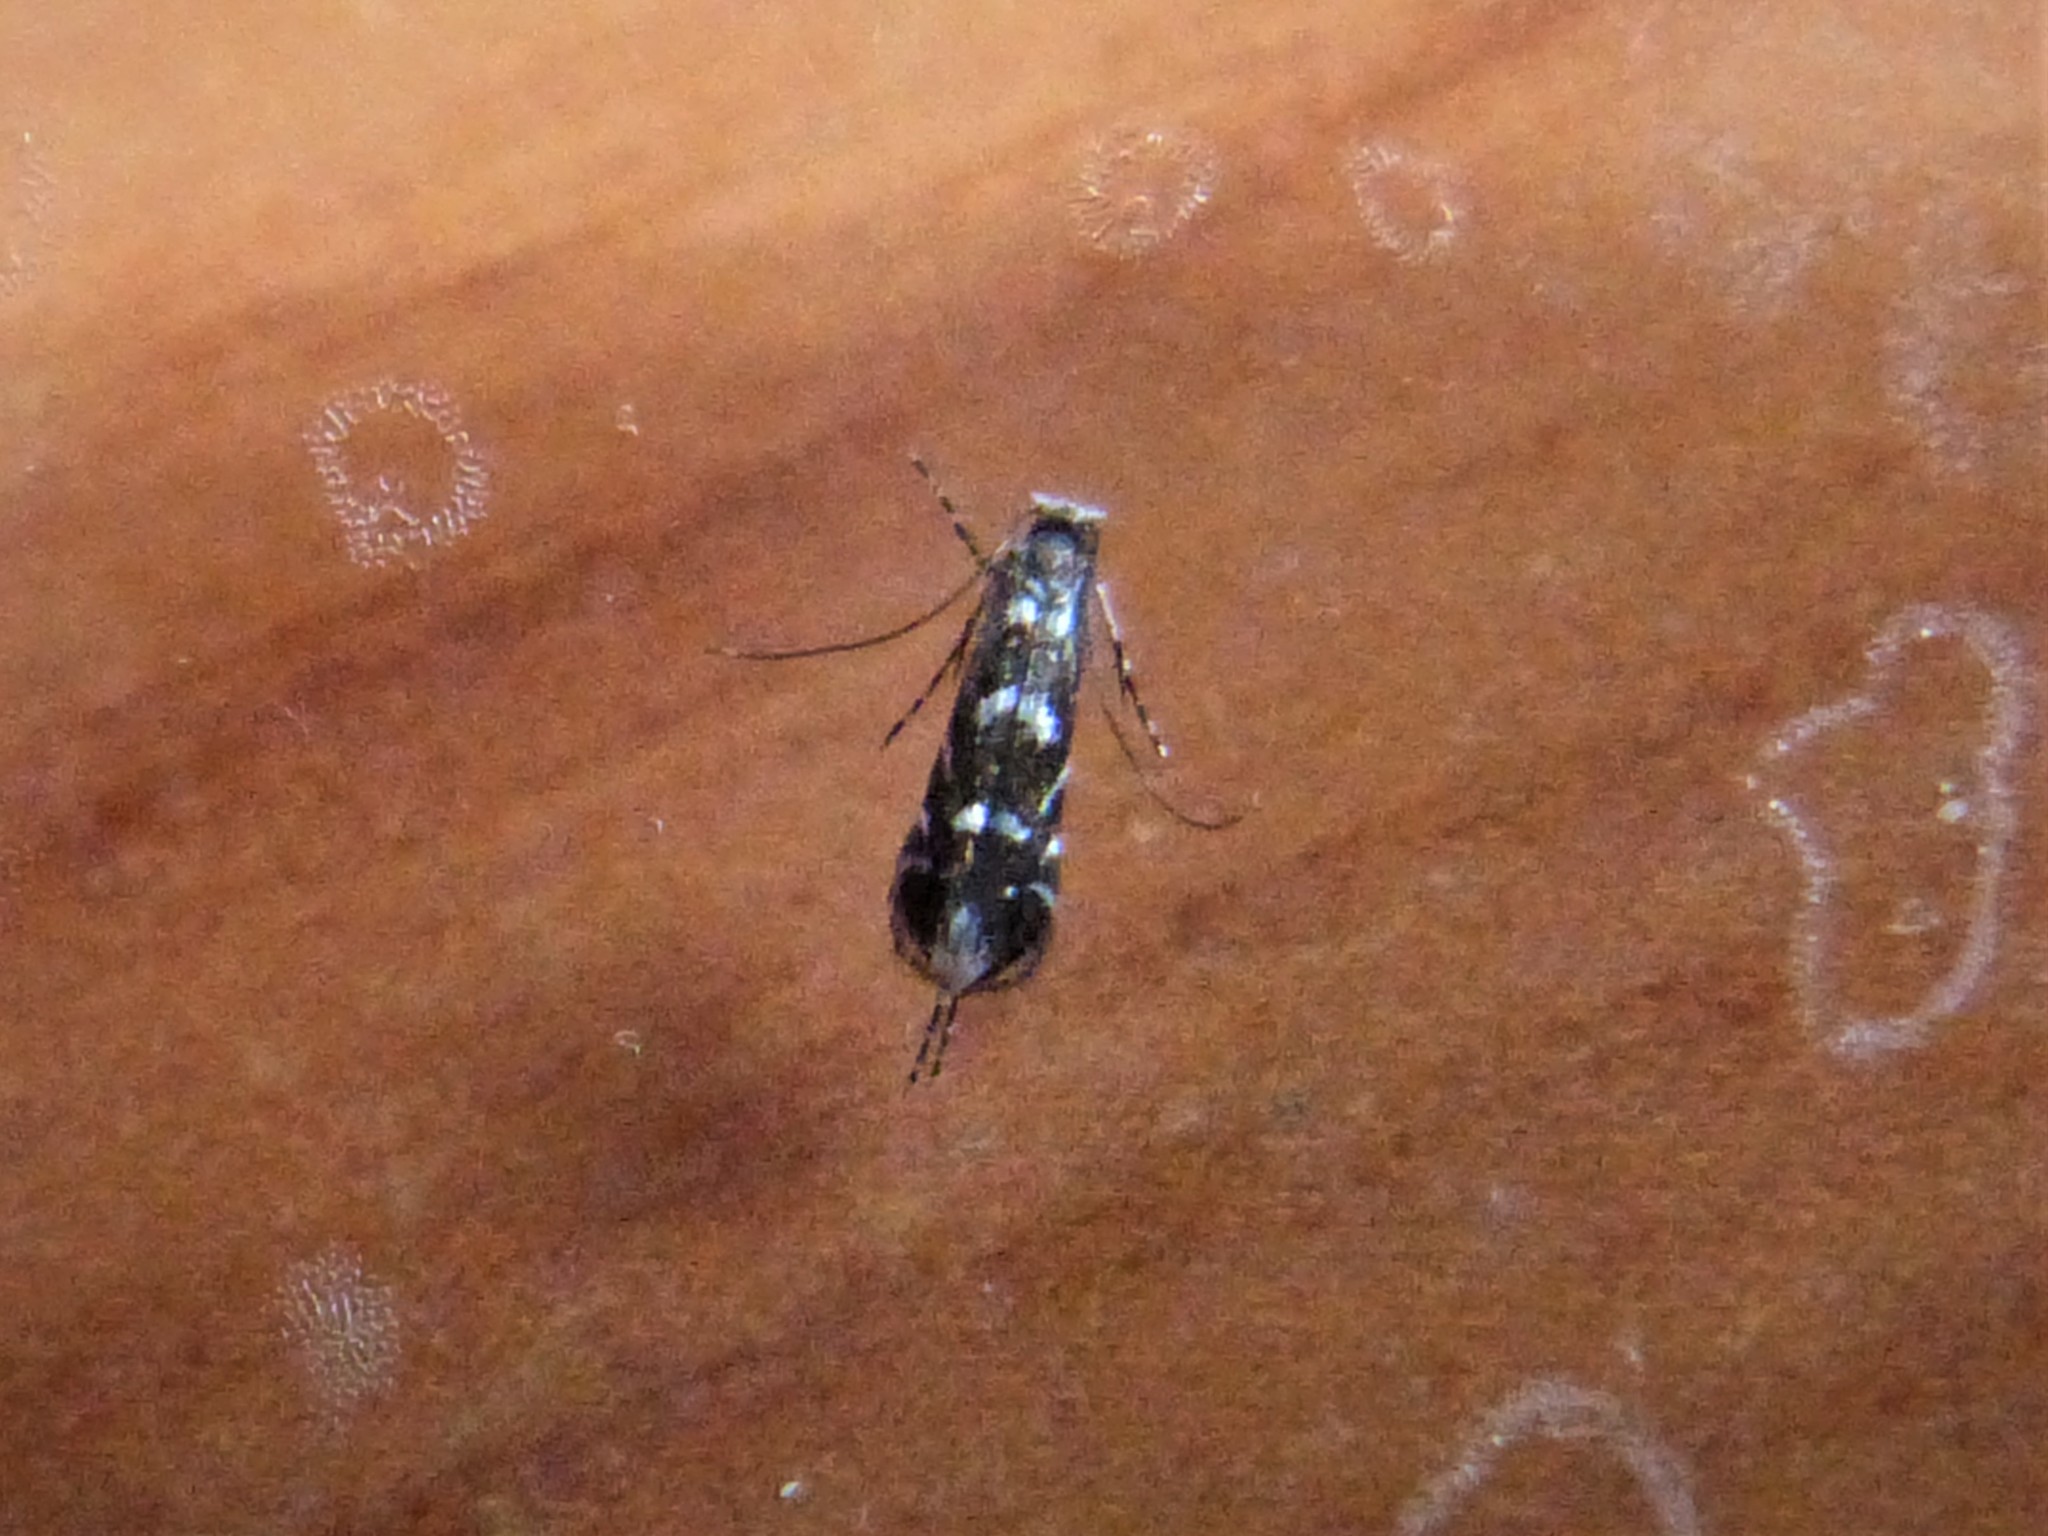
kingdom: Animalia
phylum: Arthropoda
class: Insecta
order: Lepidoptera
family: Gracillariidae
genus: Parectopa
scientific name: Parectopa robiniella
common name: Locust digitate leafminer
